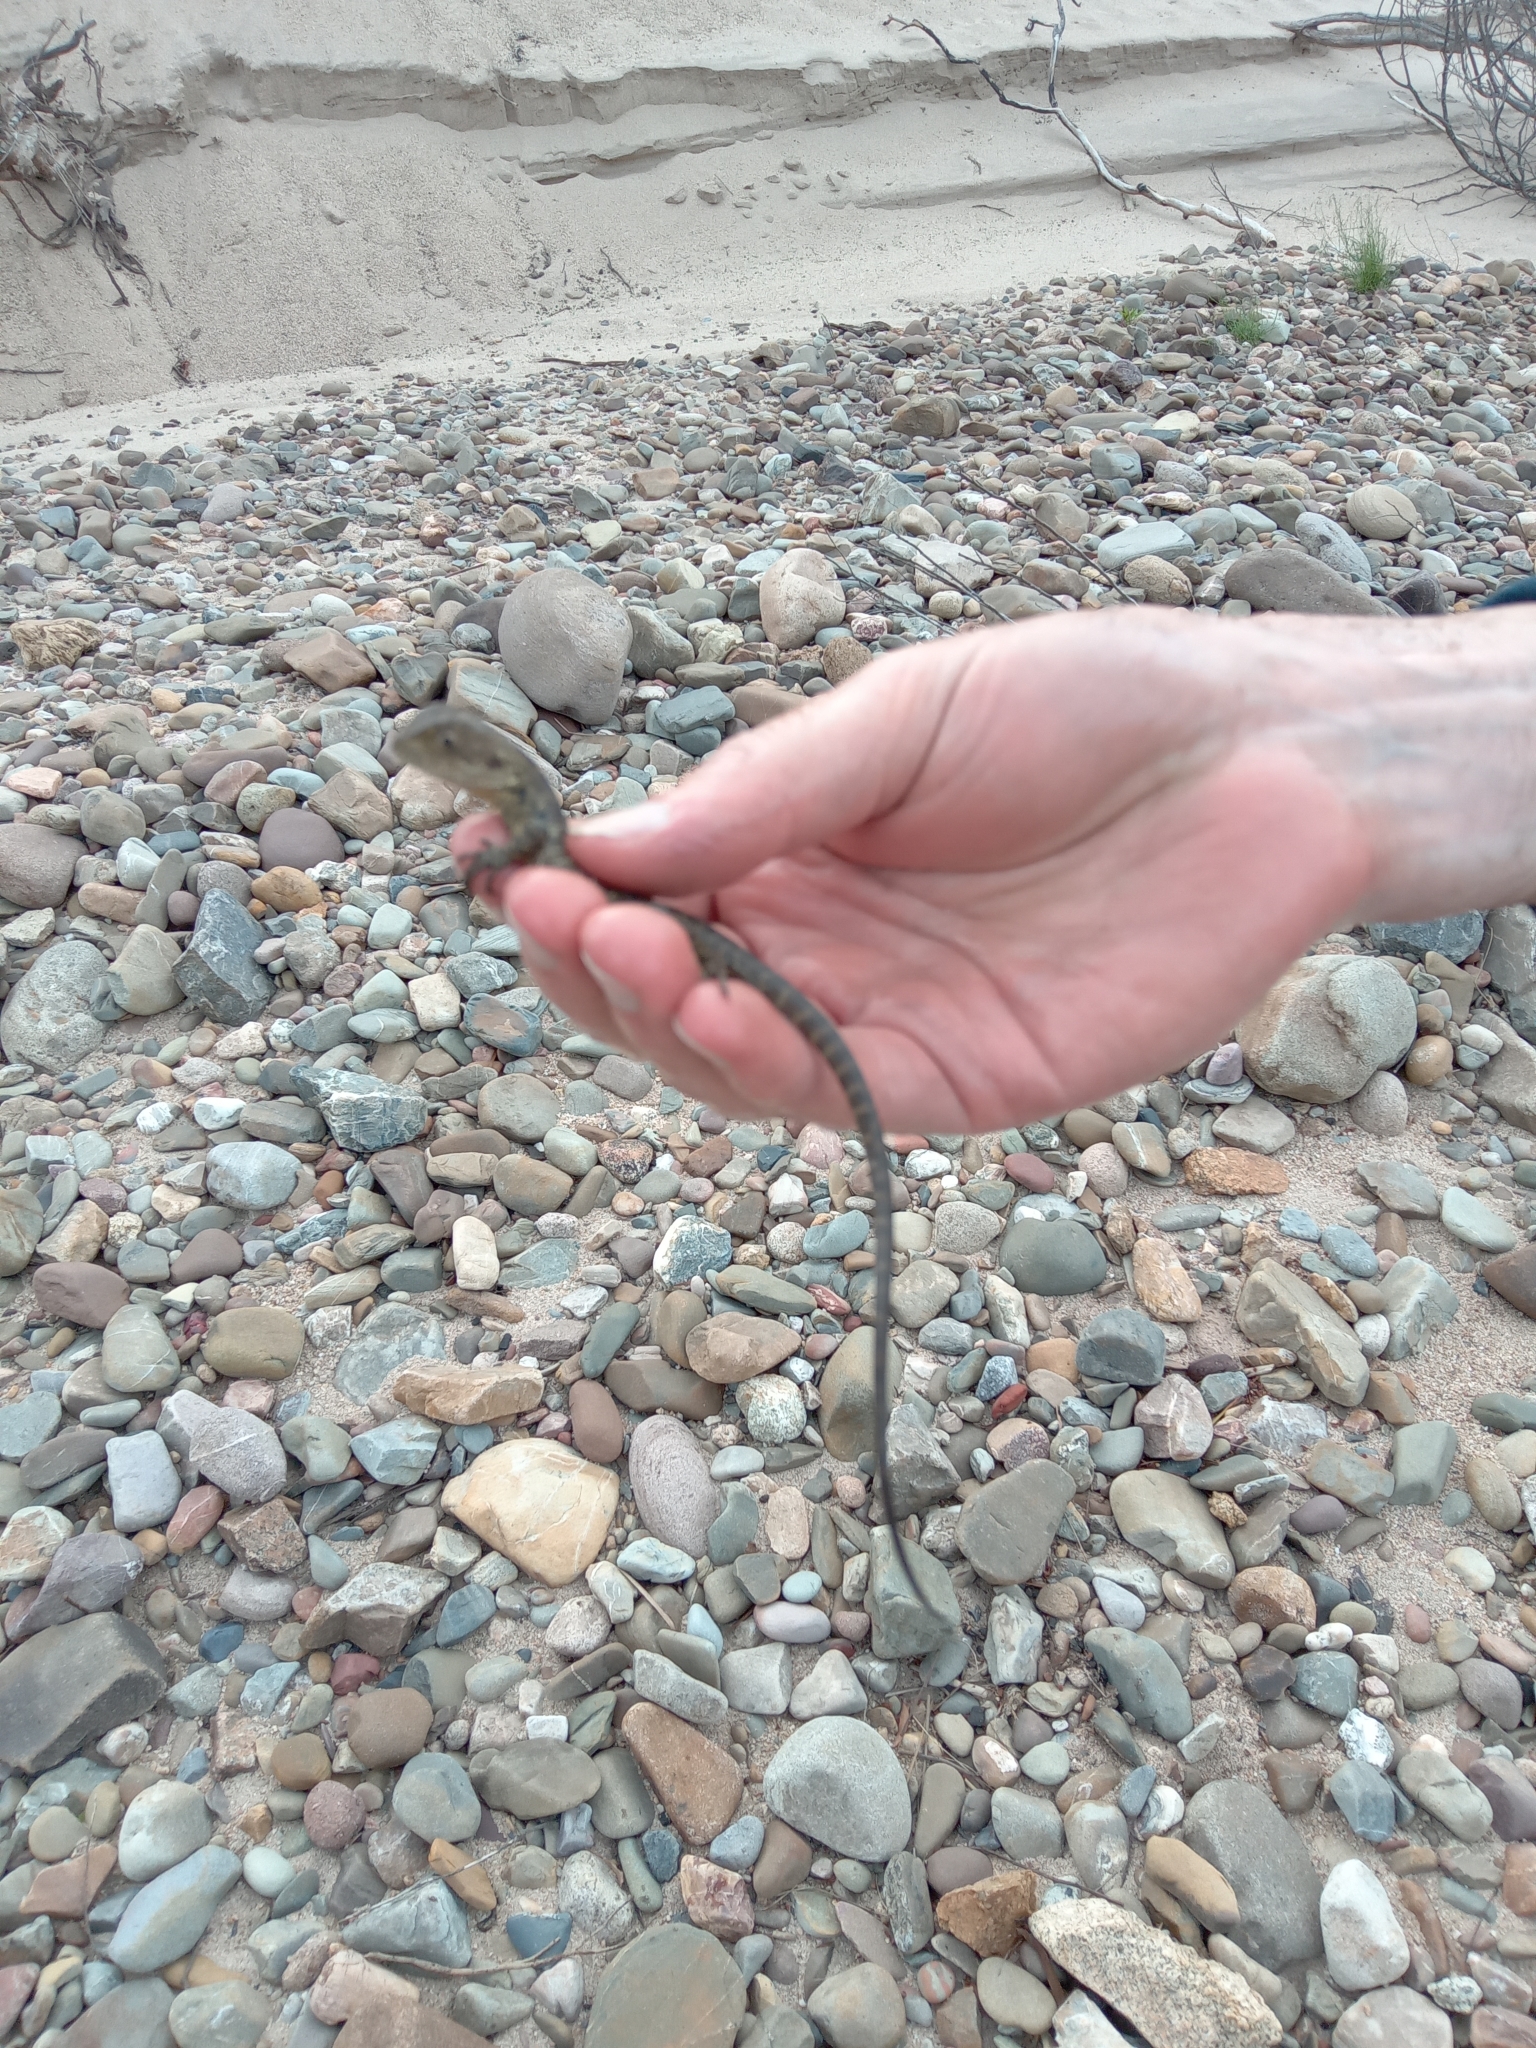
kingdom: Animalia
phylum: Chordata
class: Squamata
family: Agamidae
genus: Intellagama
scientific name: Intellagama lesueurii
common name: Eastern water dragon
